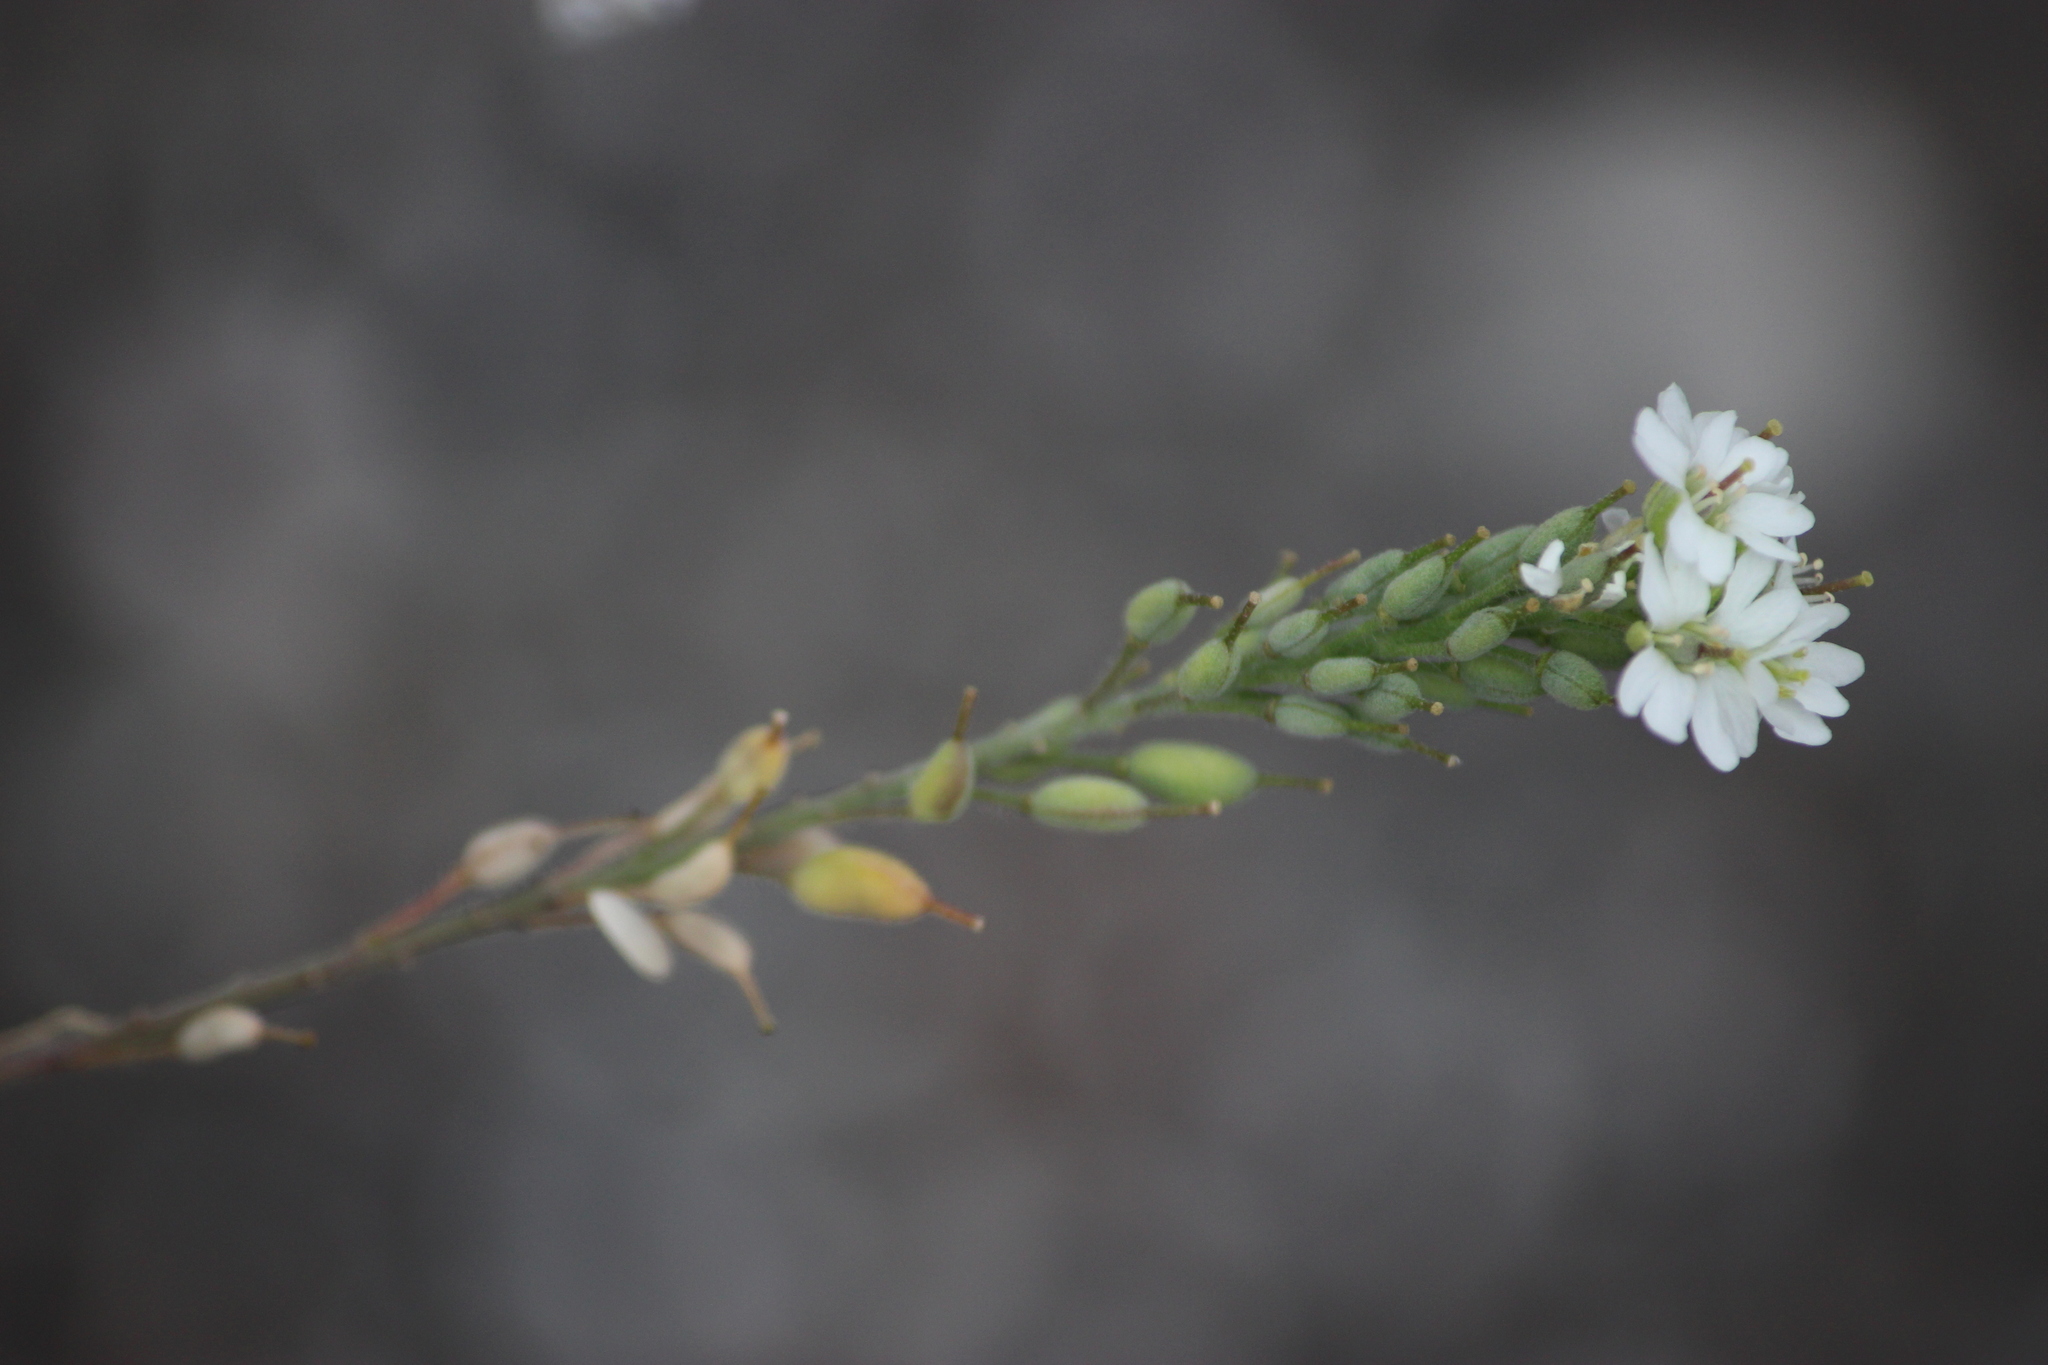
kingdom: Plantae
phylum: Tracheophyta
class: Magnoliopsida
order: Brassicales
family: Brassicaceae
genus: Berteroa
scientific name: Berteroa incana
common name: Hoary alison
